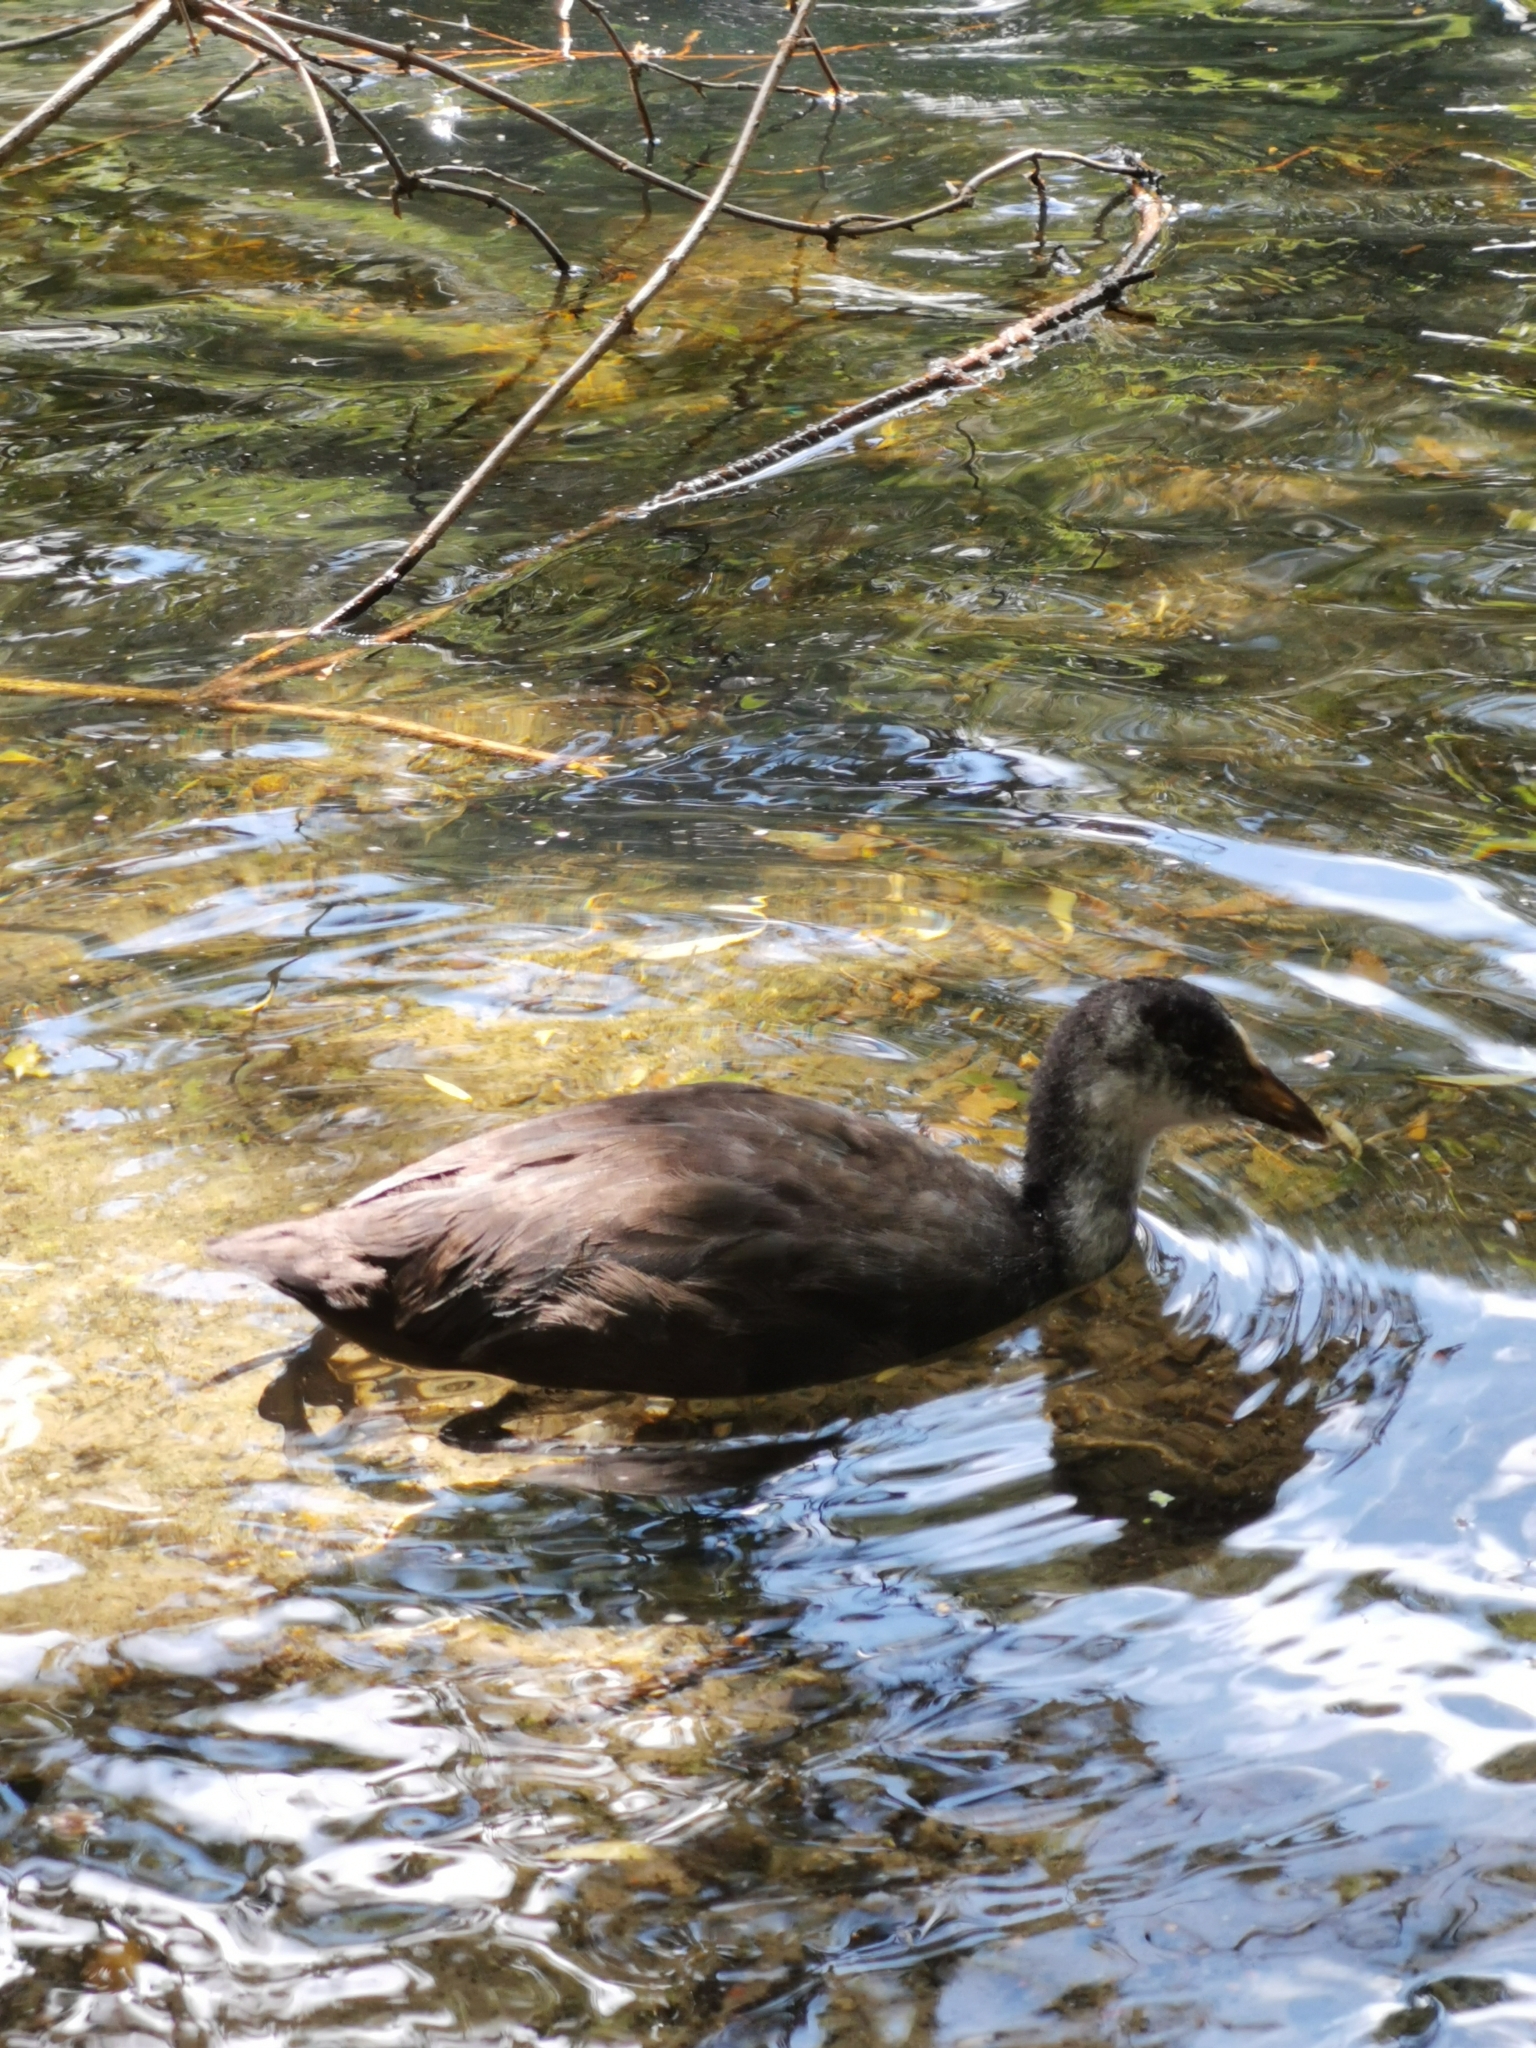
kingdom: Animalia
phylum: Chordata
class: Aves
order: Gruiformes
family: Rallidae
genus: Fulica
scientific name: Fulica atra
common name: Eurasian coot
